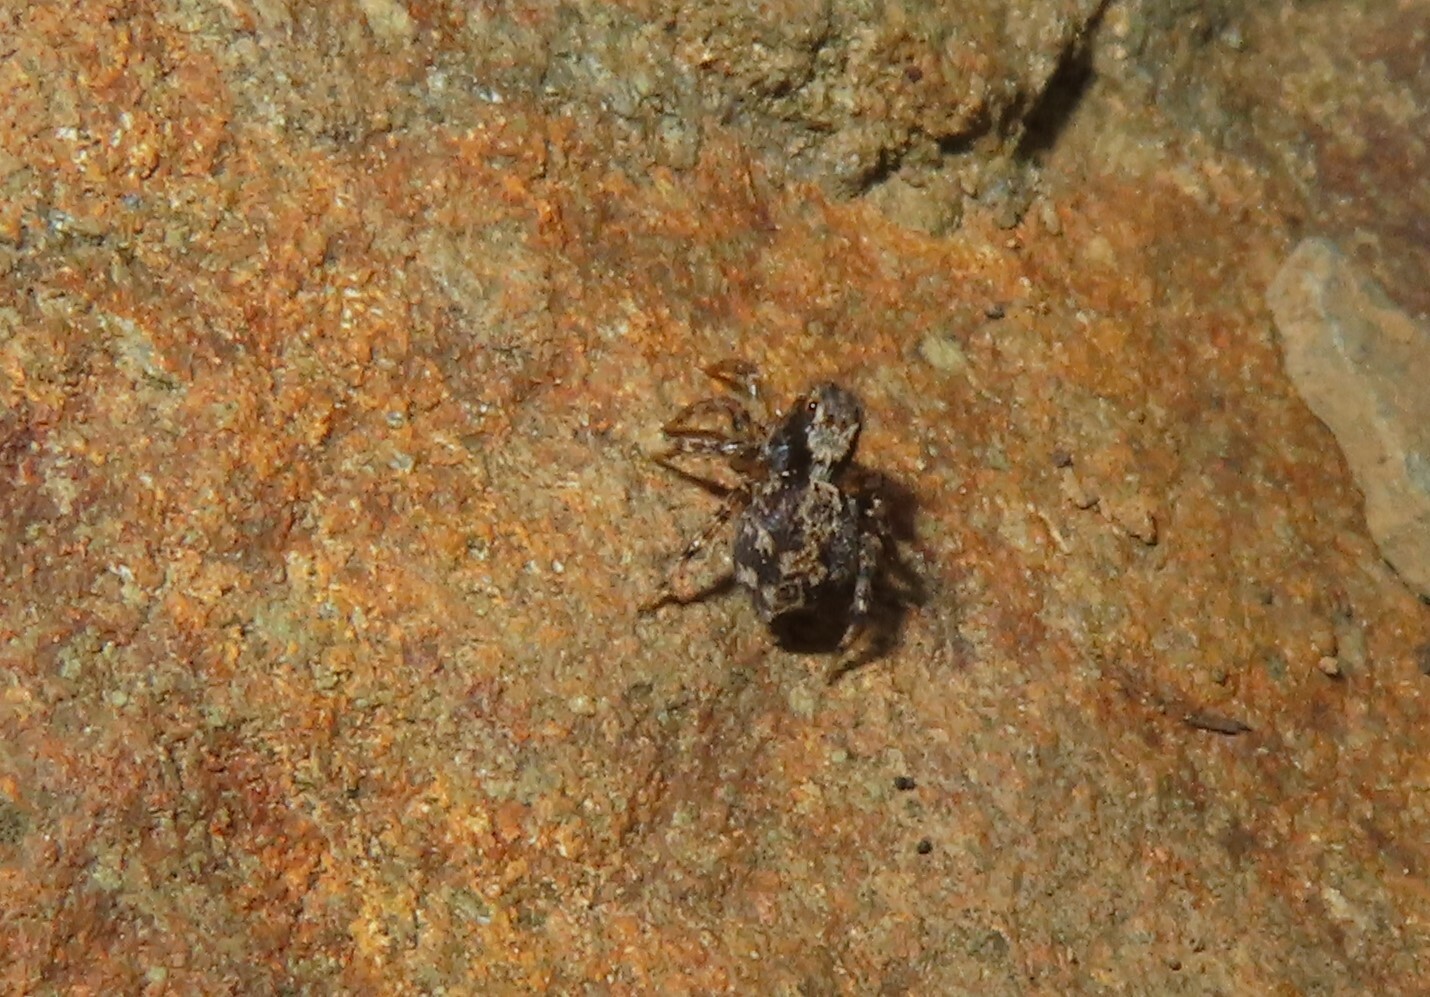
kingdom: Animalia
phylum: Arthropoda
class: Arachnida
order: Araneae
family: Salticidae
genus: Naphrys
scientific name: Naphrys pulex
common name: Flea jumping spider
